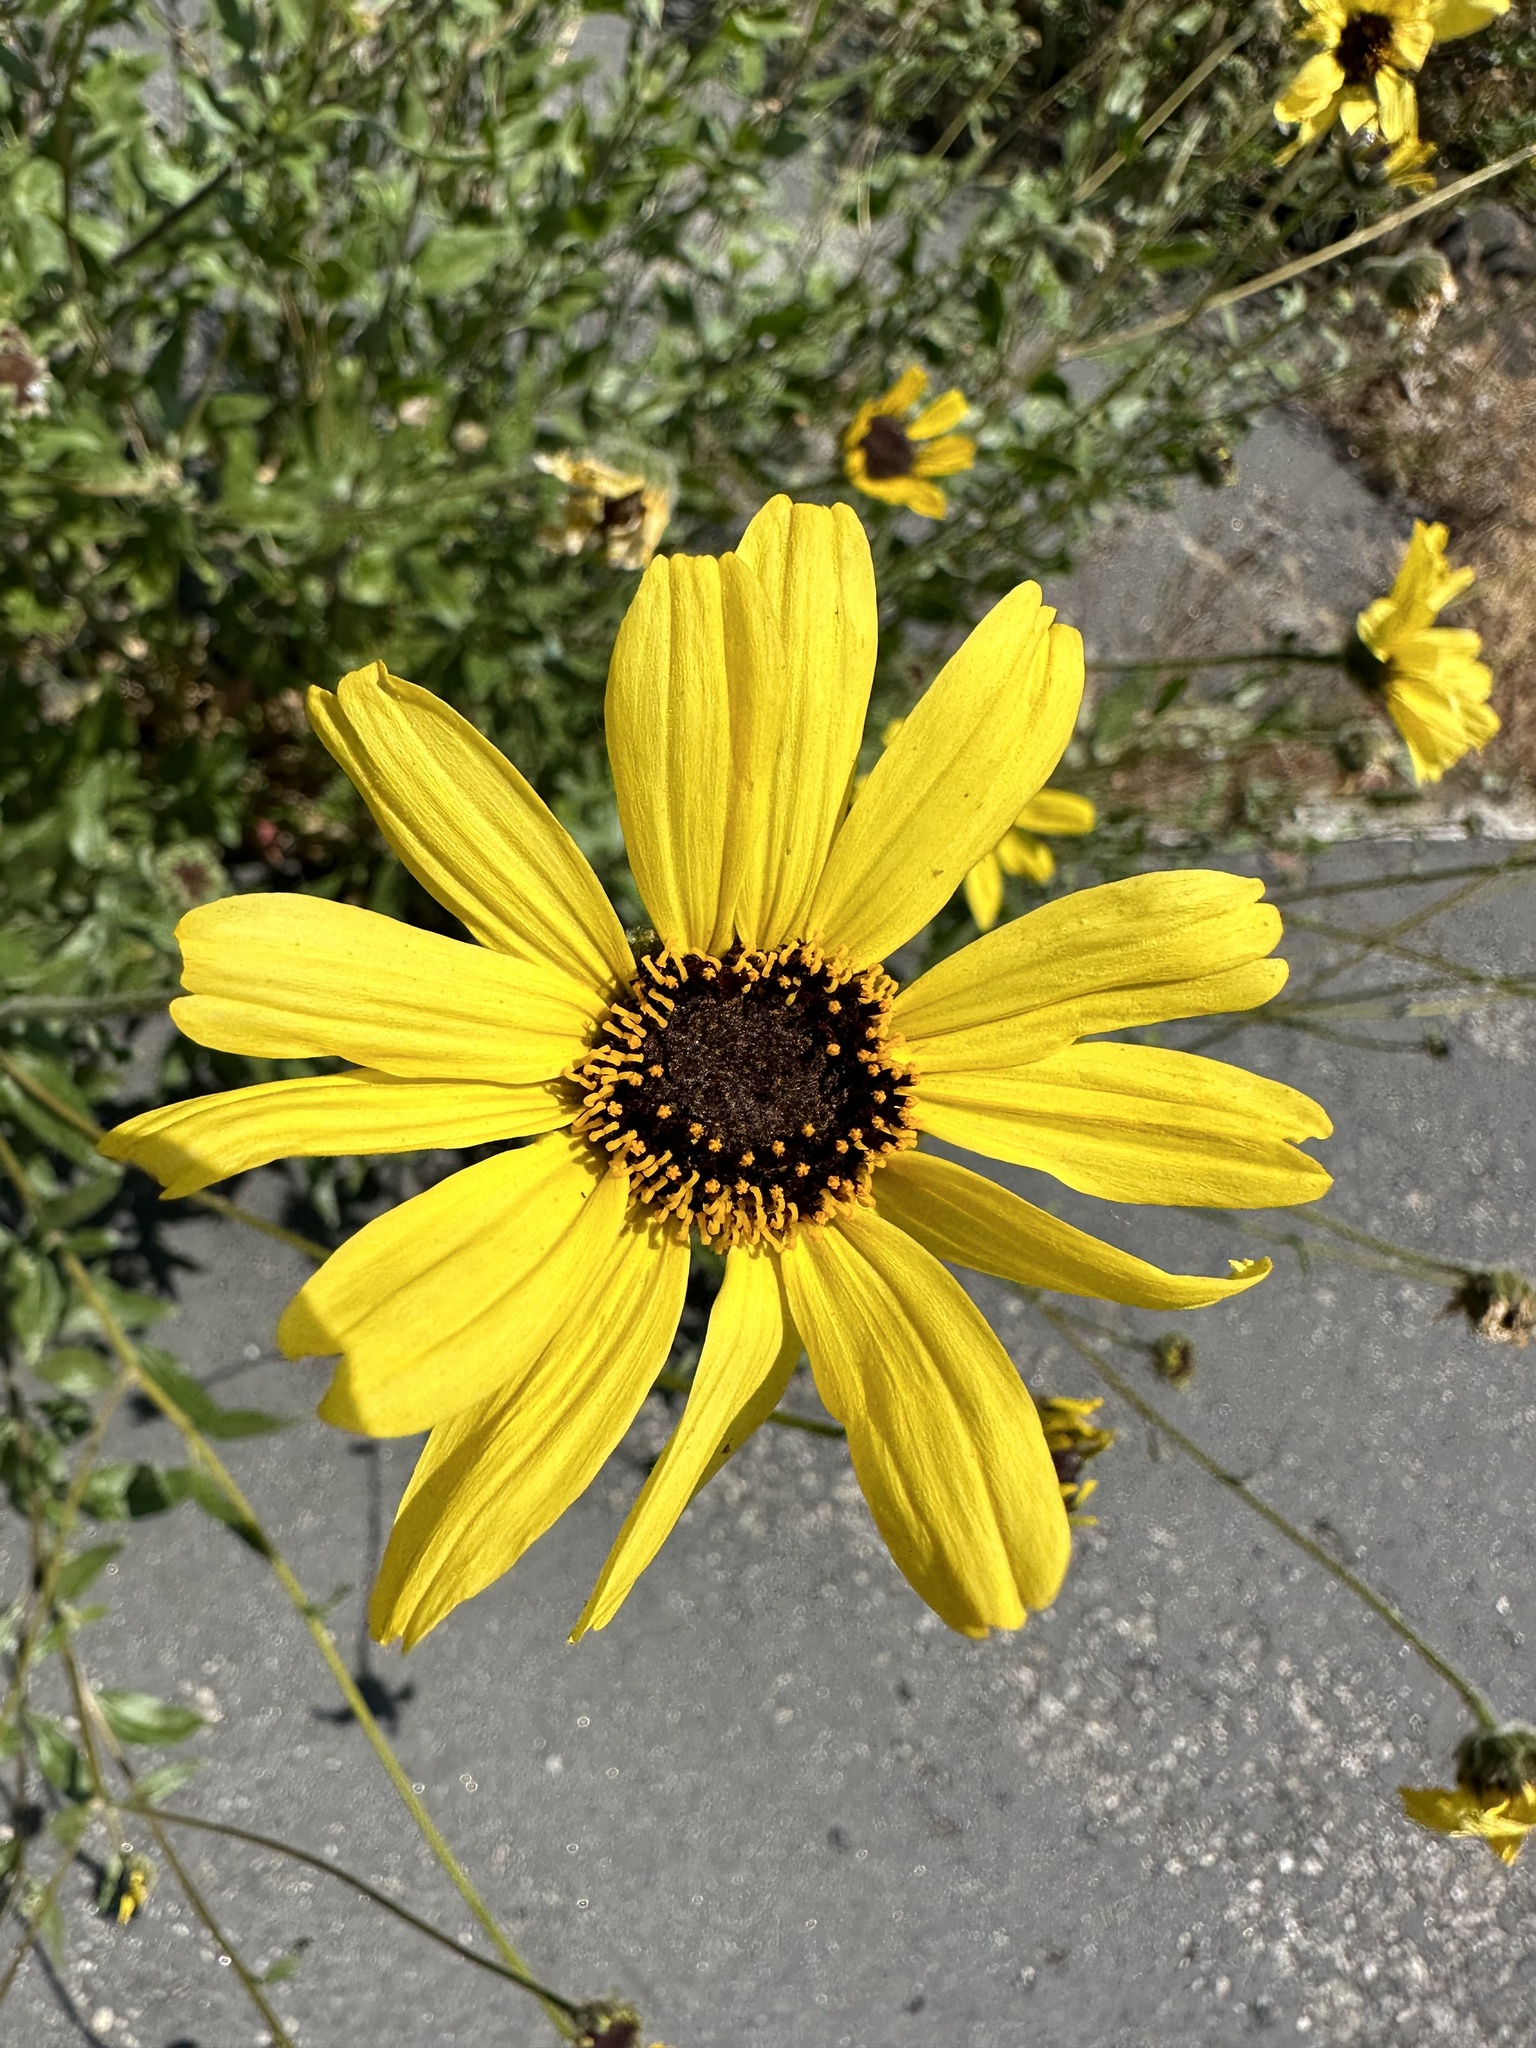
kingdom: Plantae
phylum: Tracheophyta
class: Magnoliopsida
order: Asterales
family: Asteraceae
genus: Encelia
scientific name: Encelia californica
